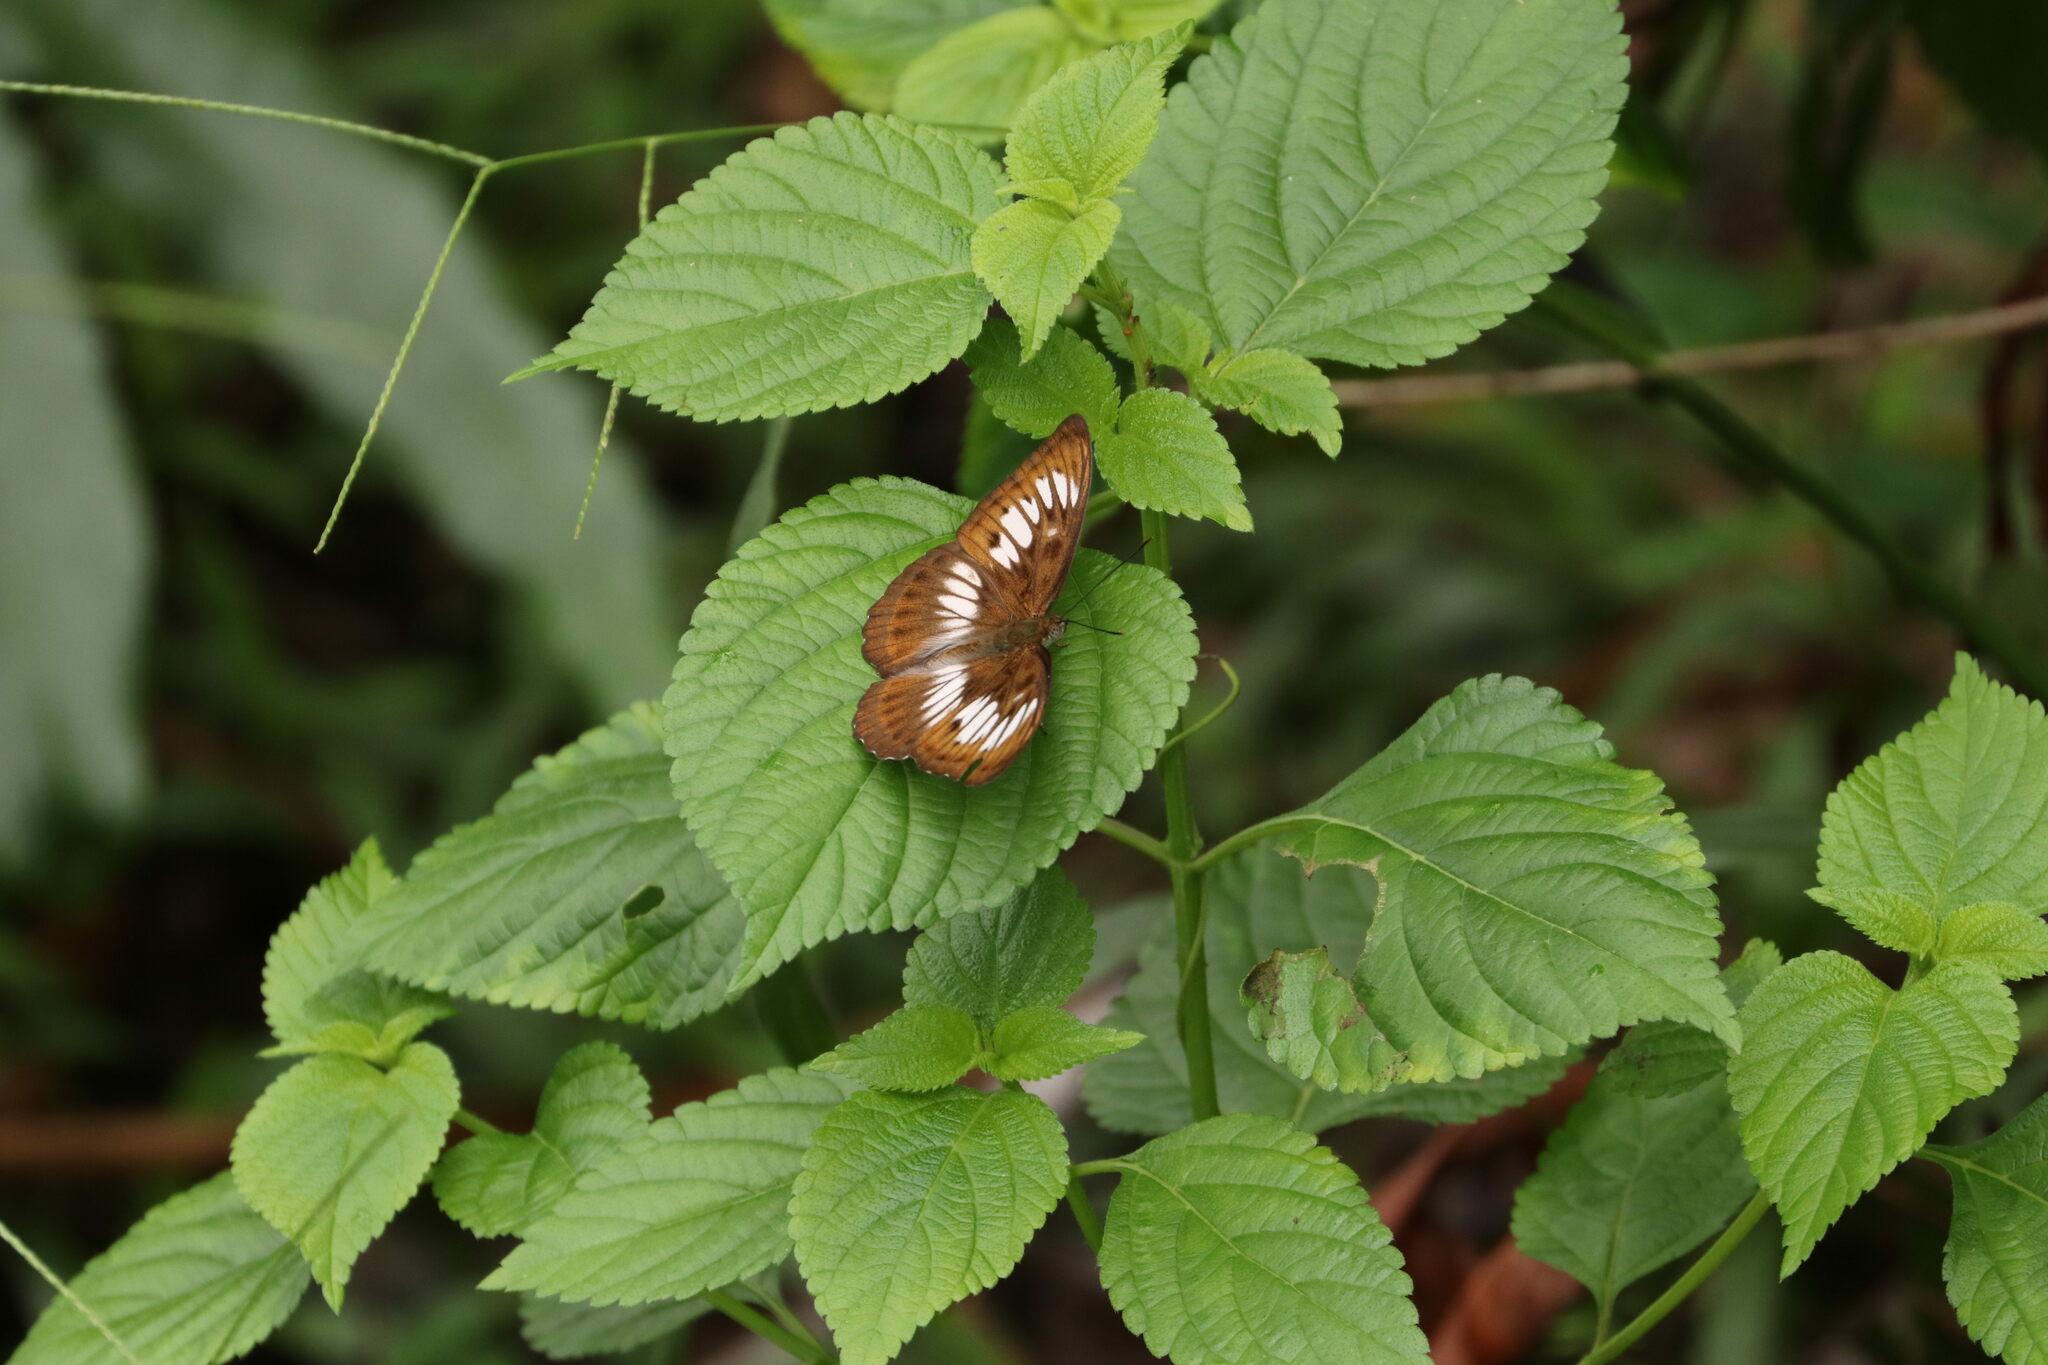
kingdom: Animalia
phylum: Arthropoda
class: Insecta
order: Lepidoptera
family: Nymphalidae
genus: Parathyma
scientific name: Parathyma speciosa
